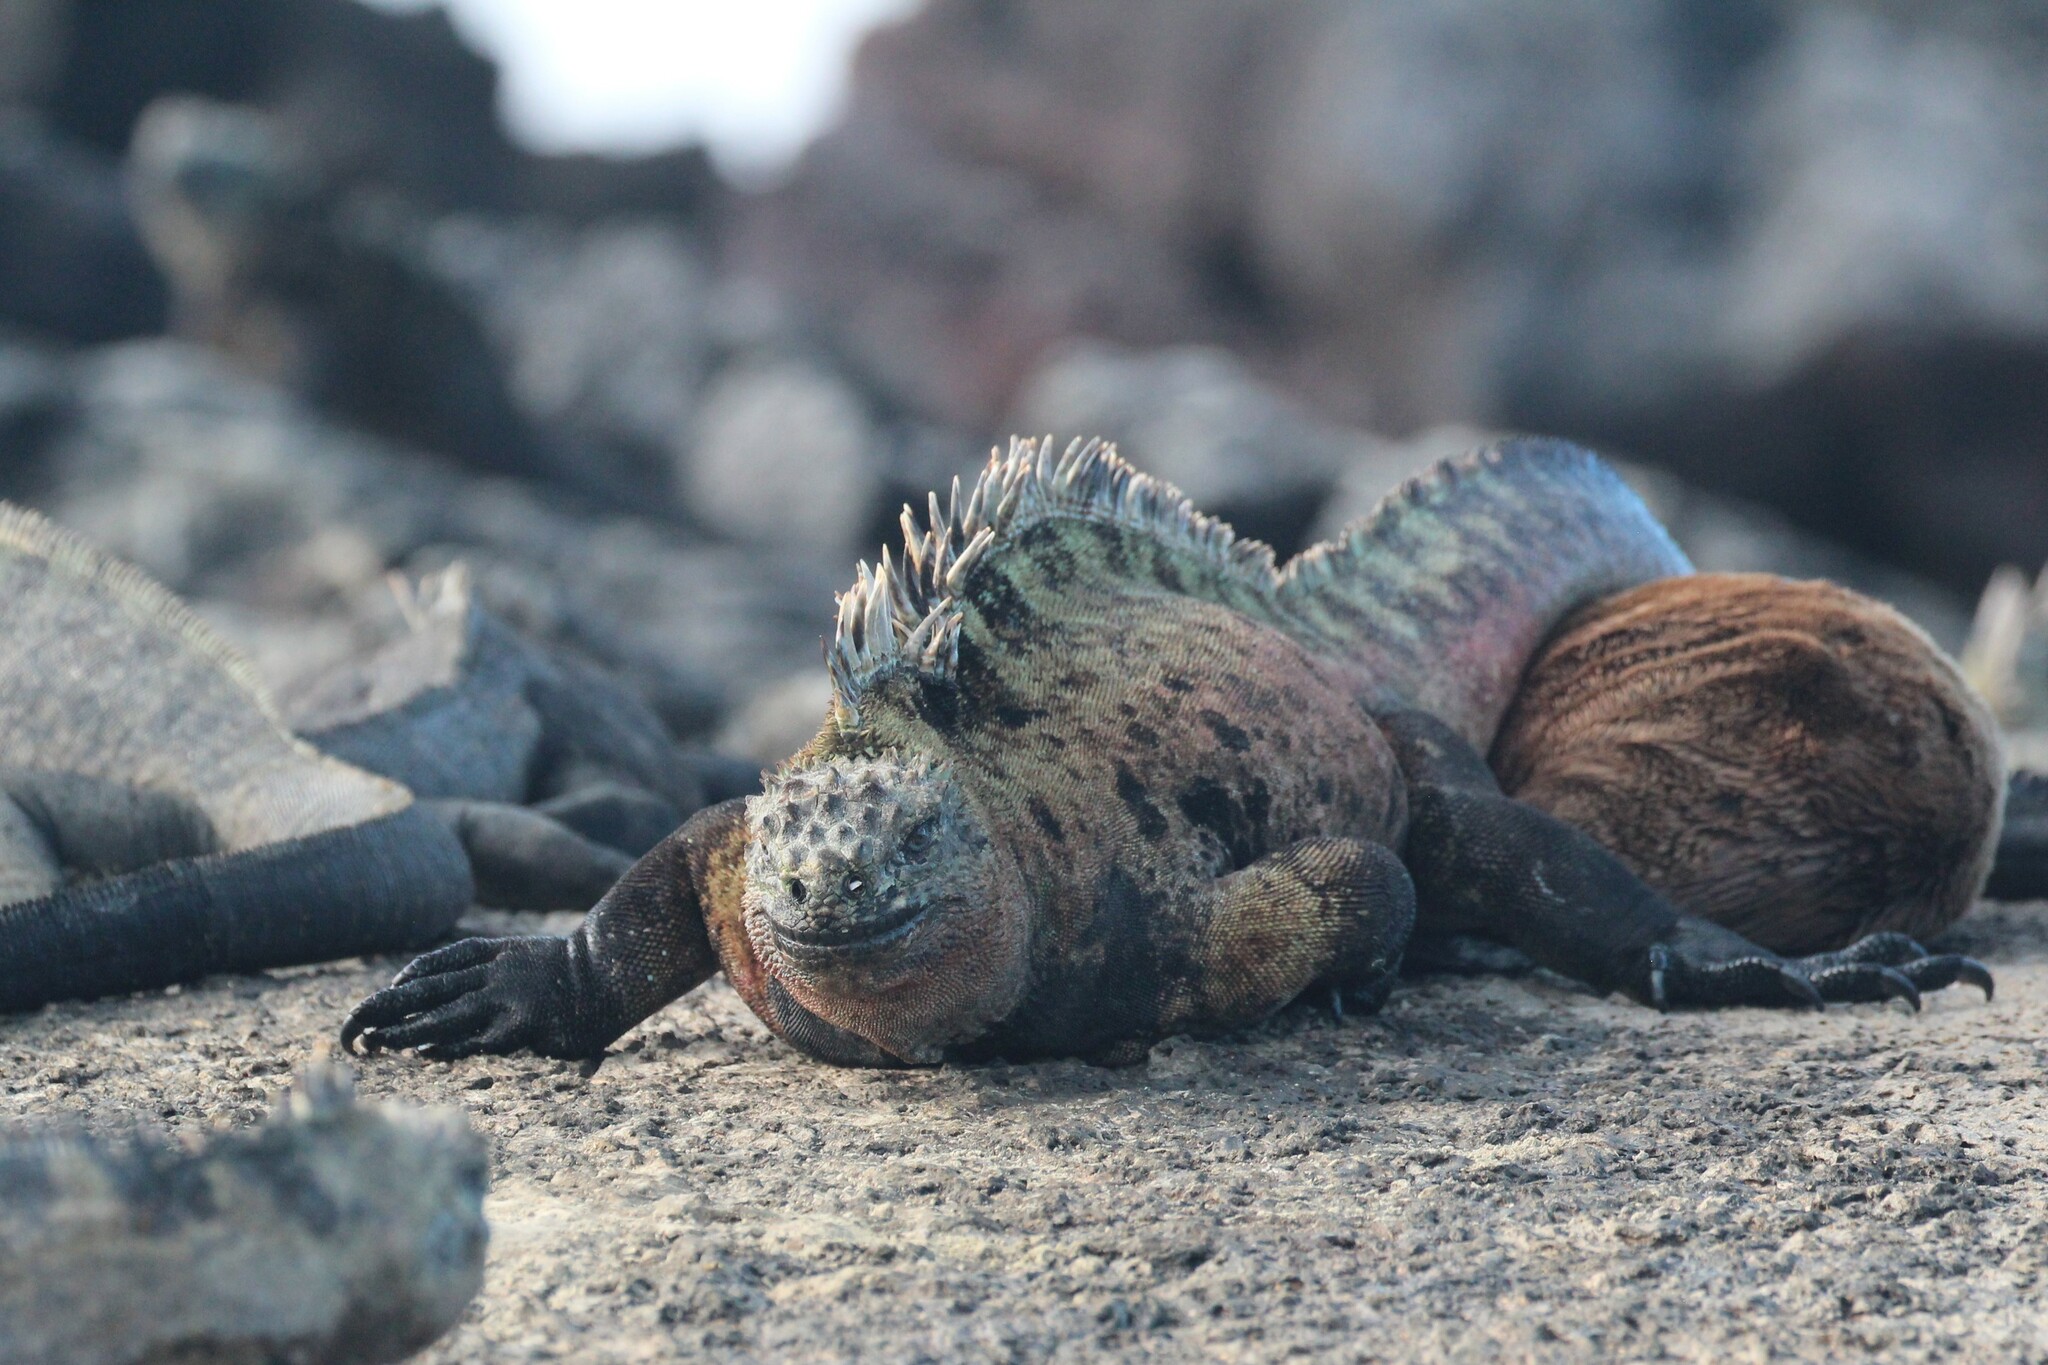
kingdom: Animalia
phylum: Chordata
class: Squamata
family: Iguanidae
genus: Amblyrhynchus
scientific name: Amblyrhynchus cristatus
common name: Marine iguana
